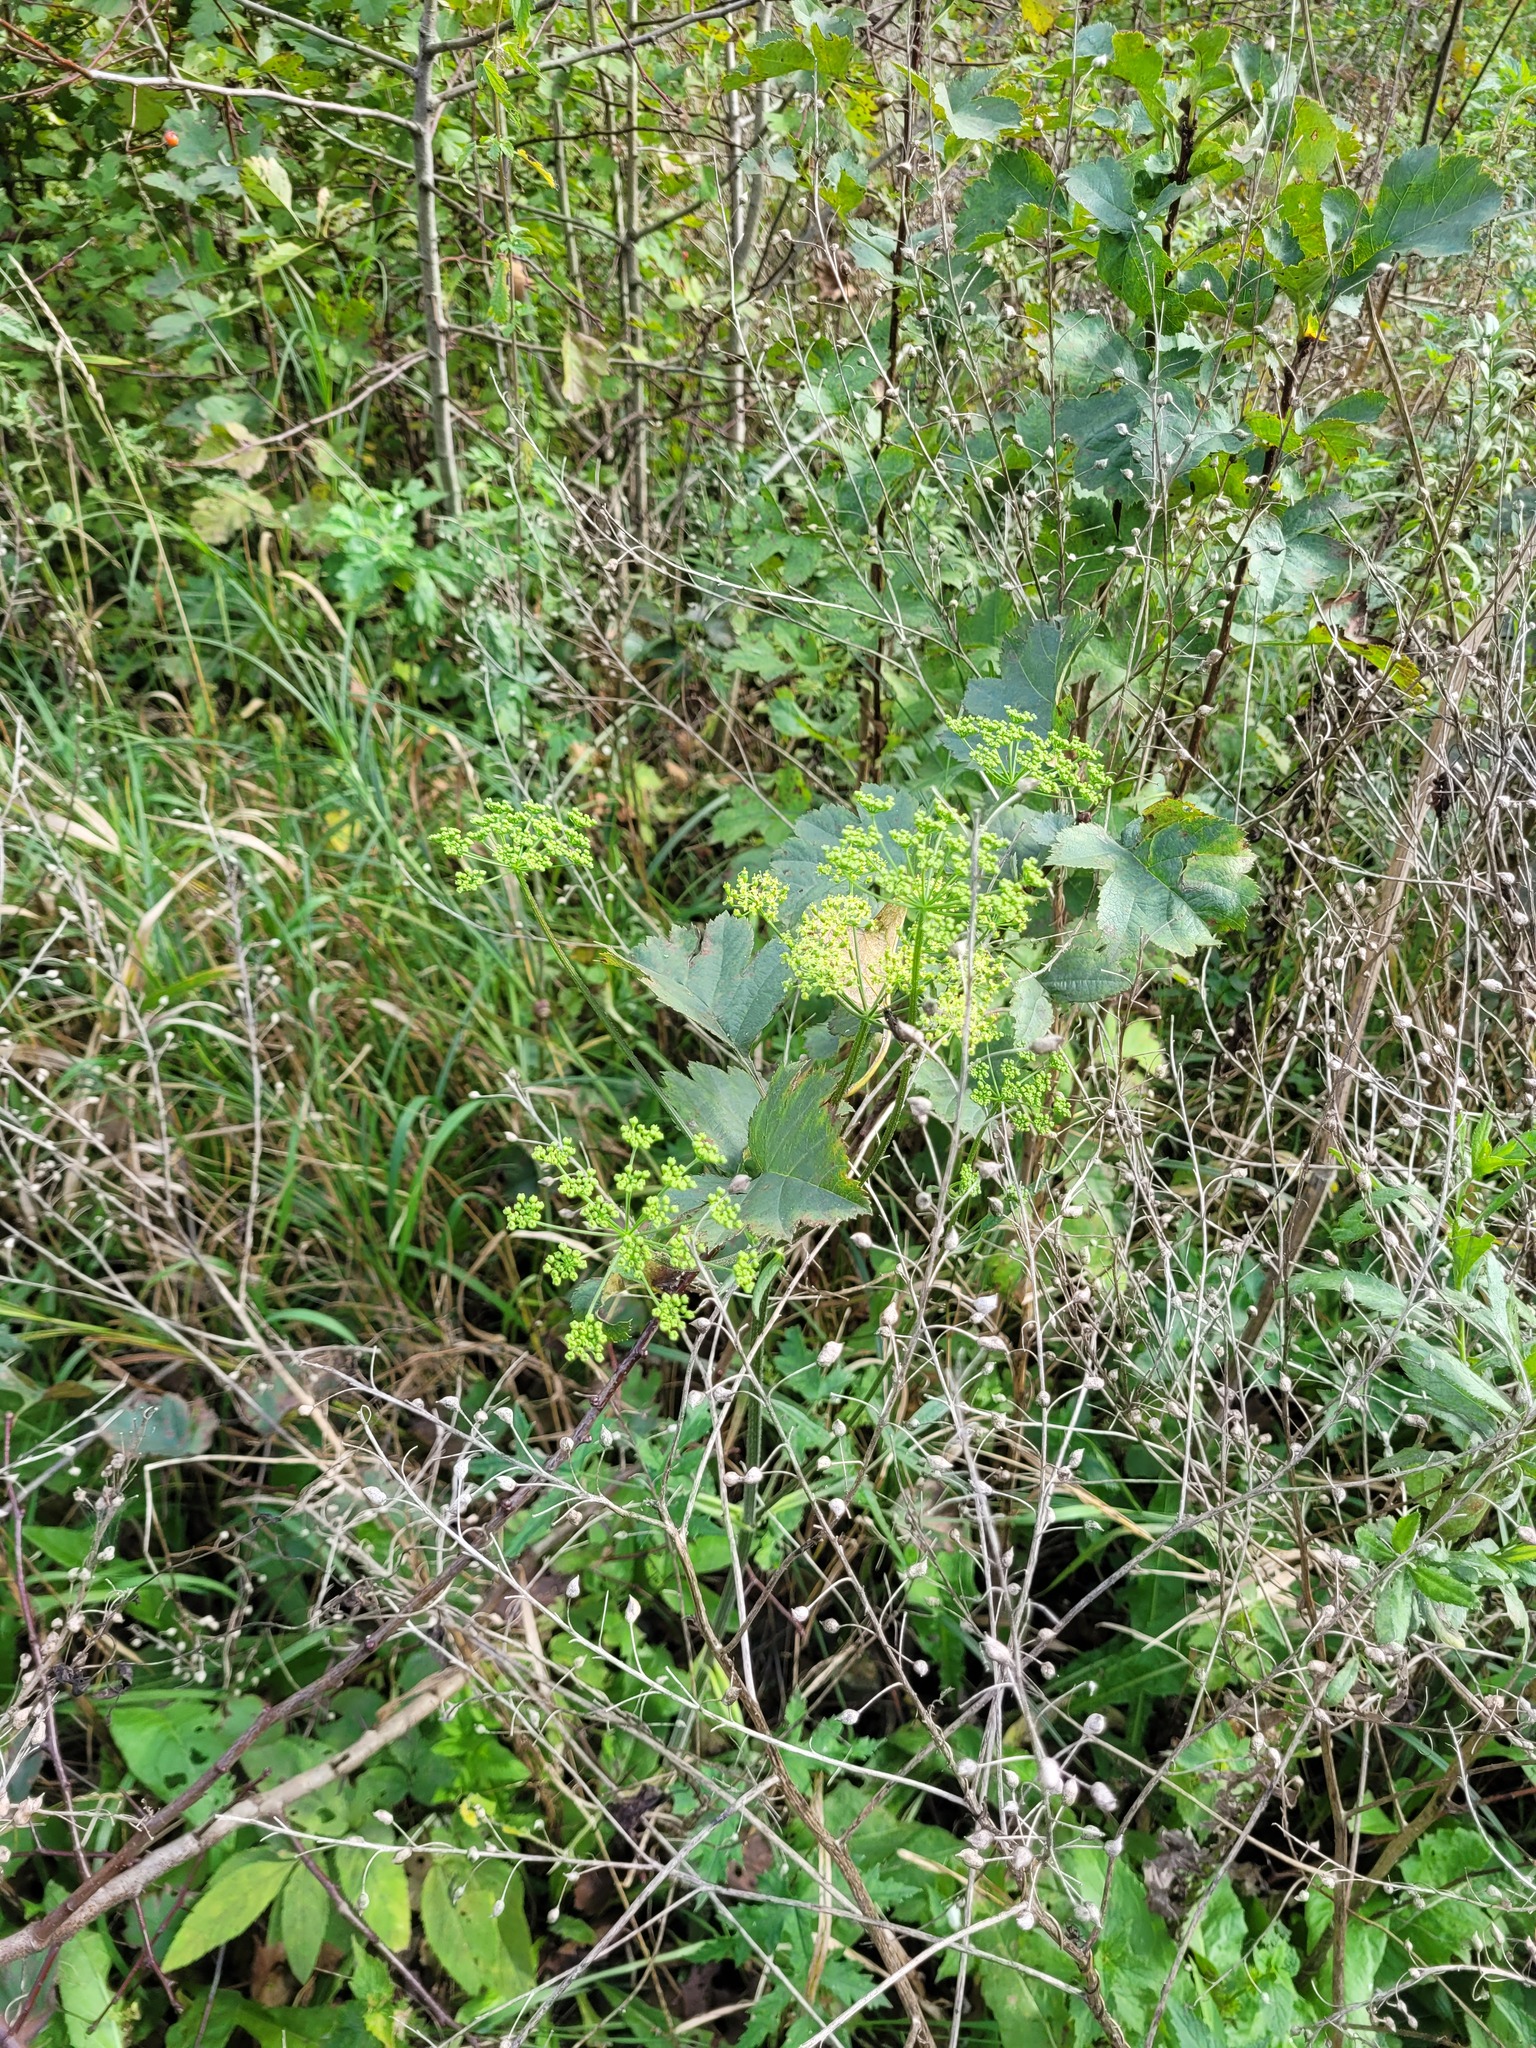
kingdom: Plantae
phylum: Tracheophyta
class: Magnoliopsida
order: Apiales
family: Apiaceae
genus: Heracleum
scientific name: Heracleum sphondylium
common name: Hogweed
